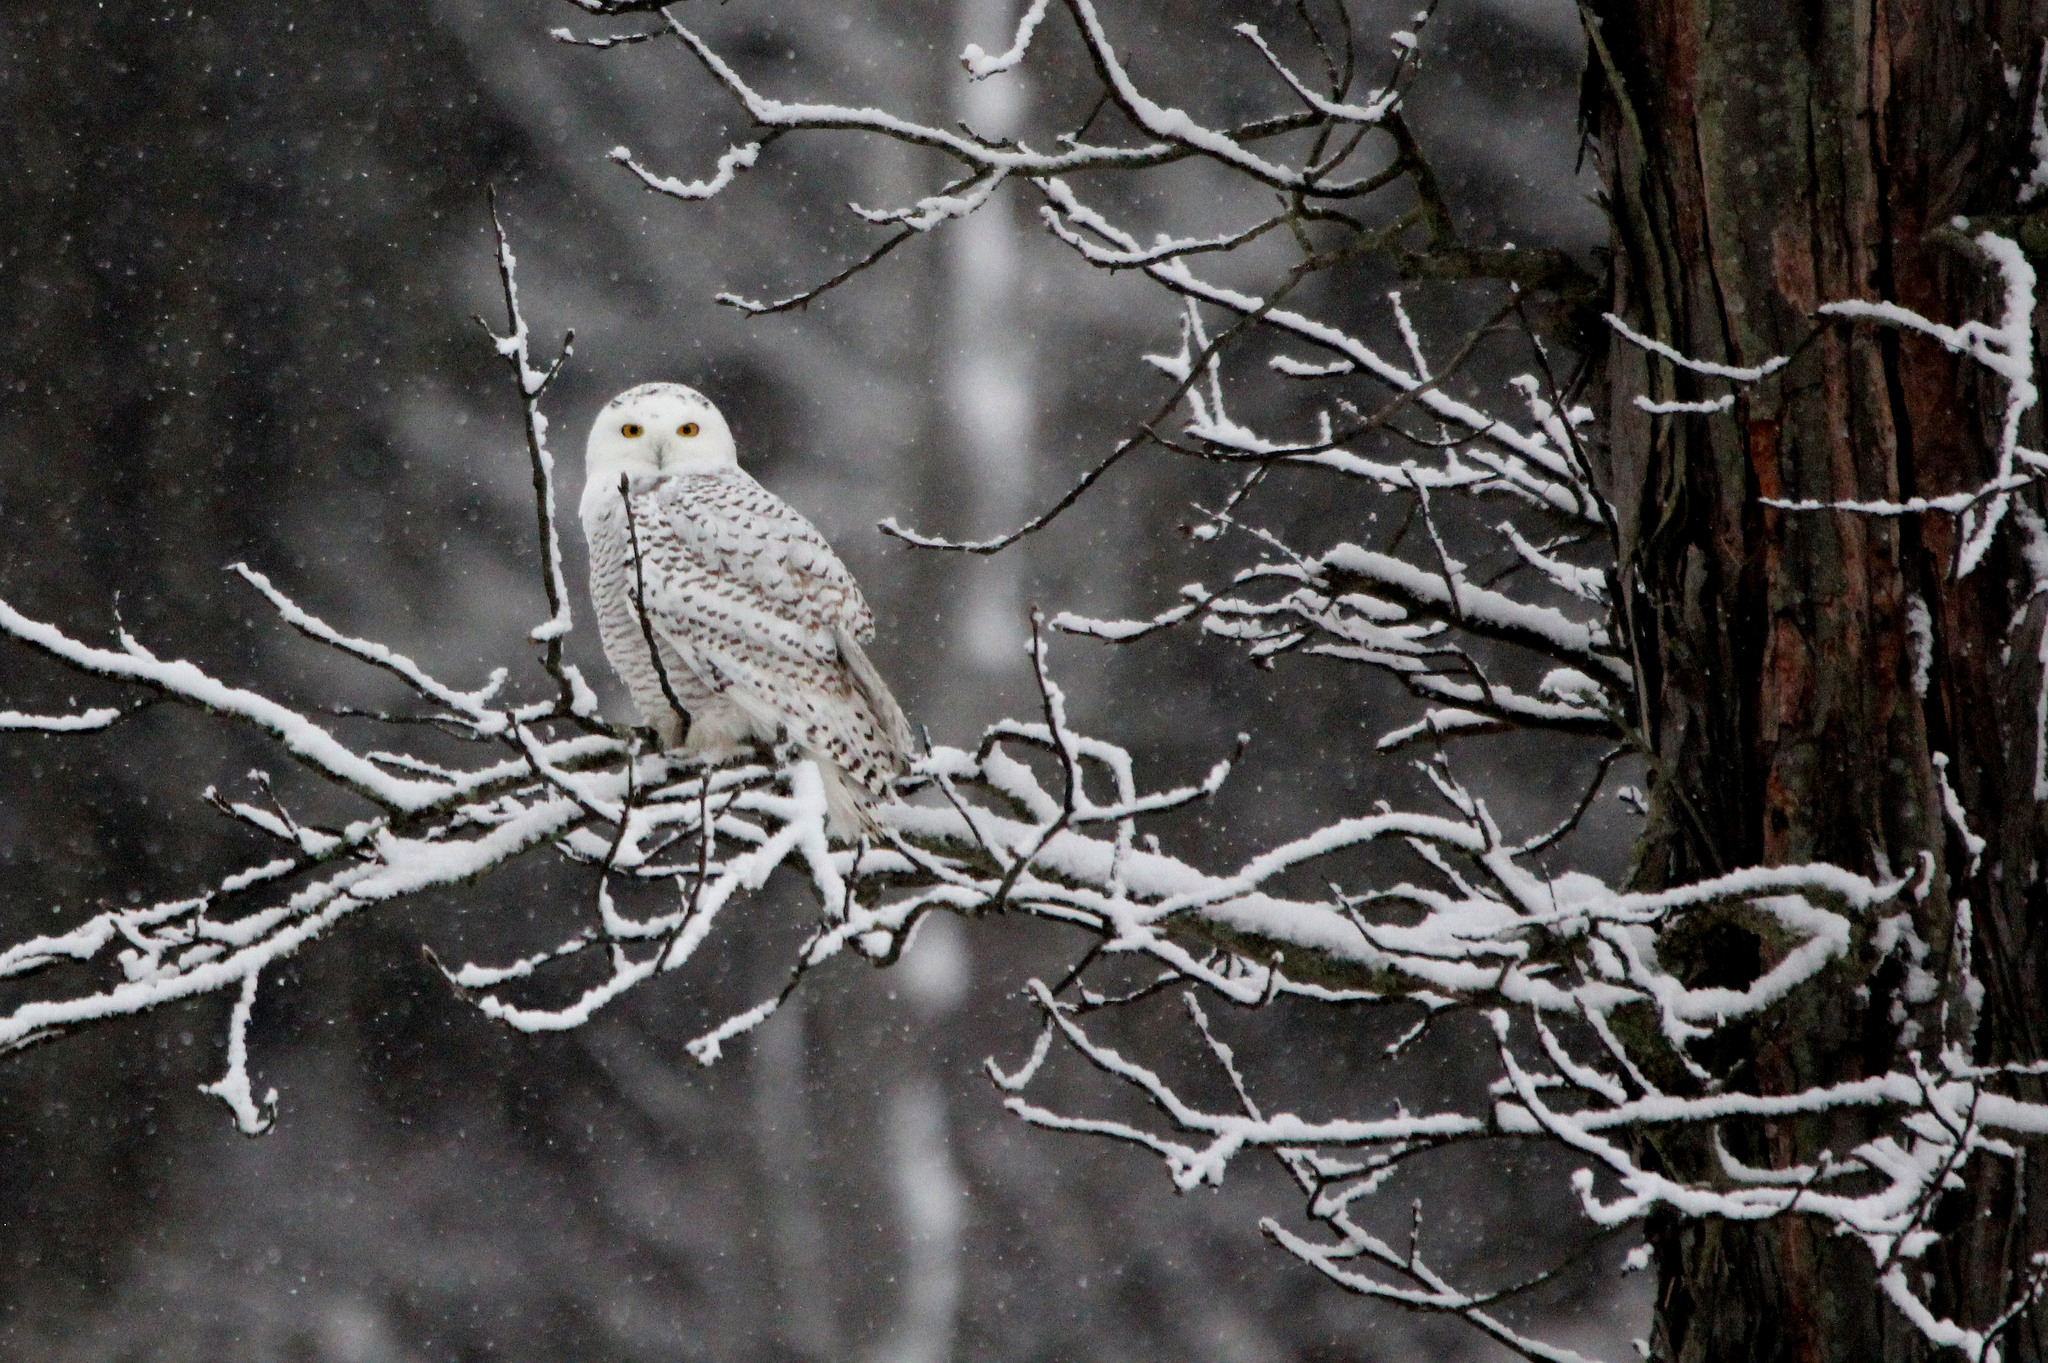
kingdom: Animalia
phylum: Chordata
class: Aves
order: Strigiformes
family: Strigidae
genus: Bubo
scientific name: Bubo scandiacus
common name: Snowy owl
